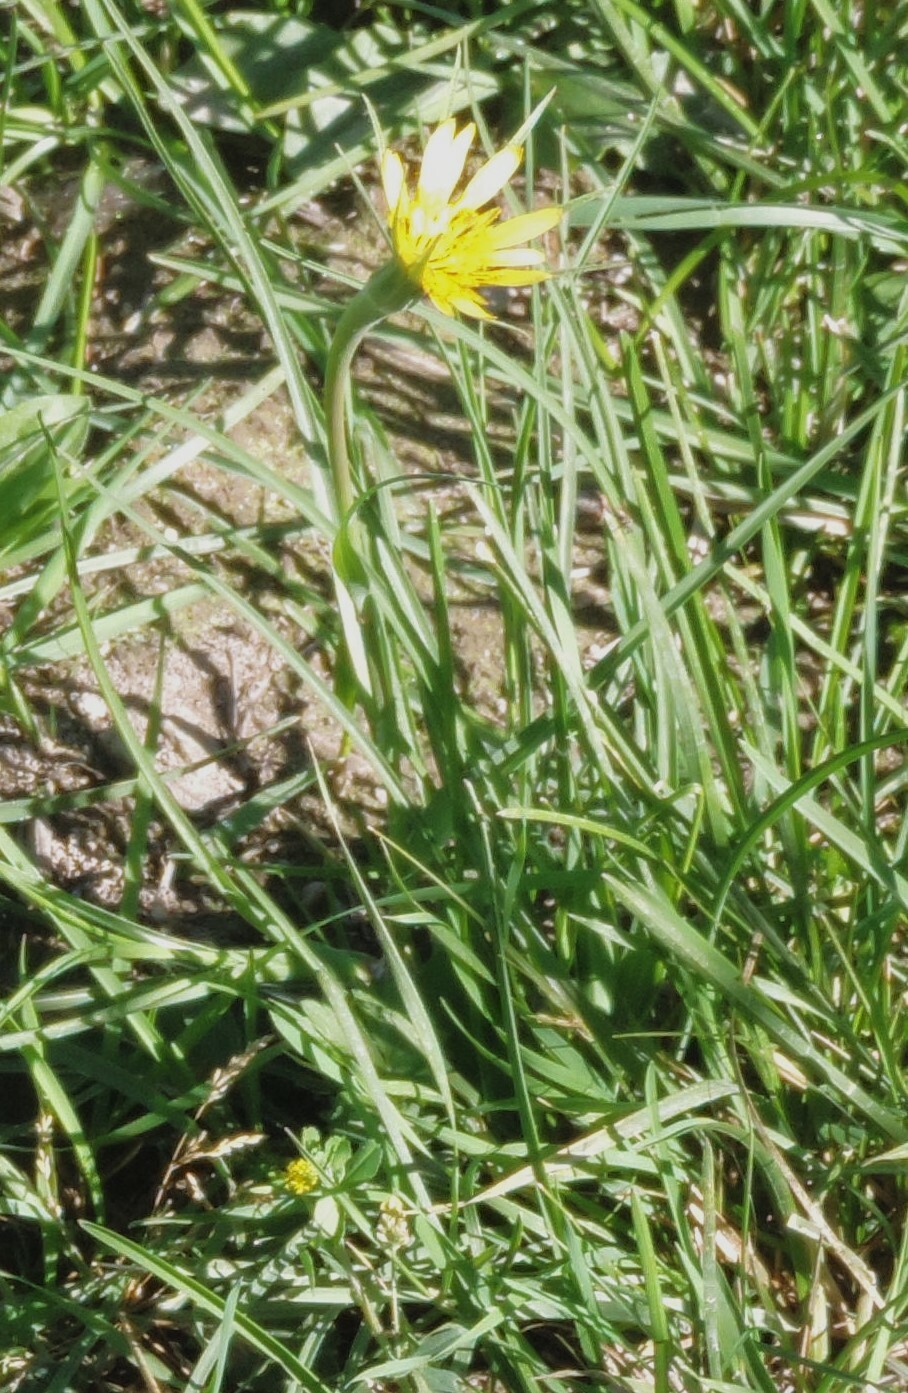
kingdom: Plantae
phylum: Tracheophyta
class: Magnoliopsida
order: Asterales
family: Asteraceae
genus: Tragopogon
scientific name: Tragopogon dubius
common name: Yellow salsify
